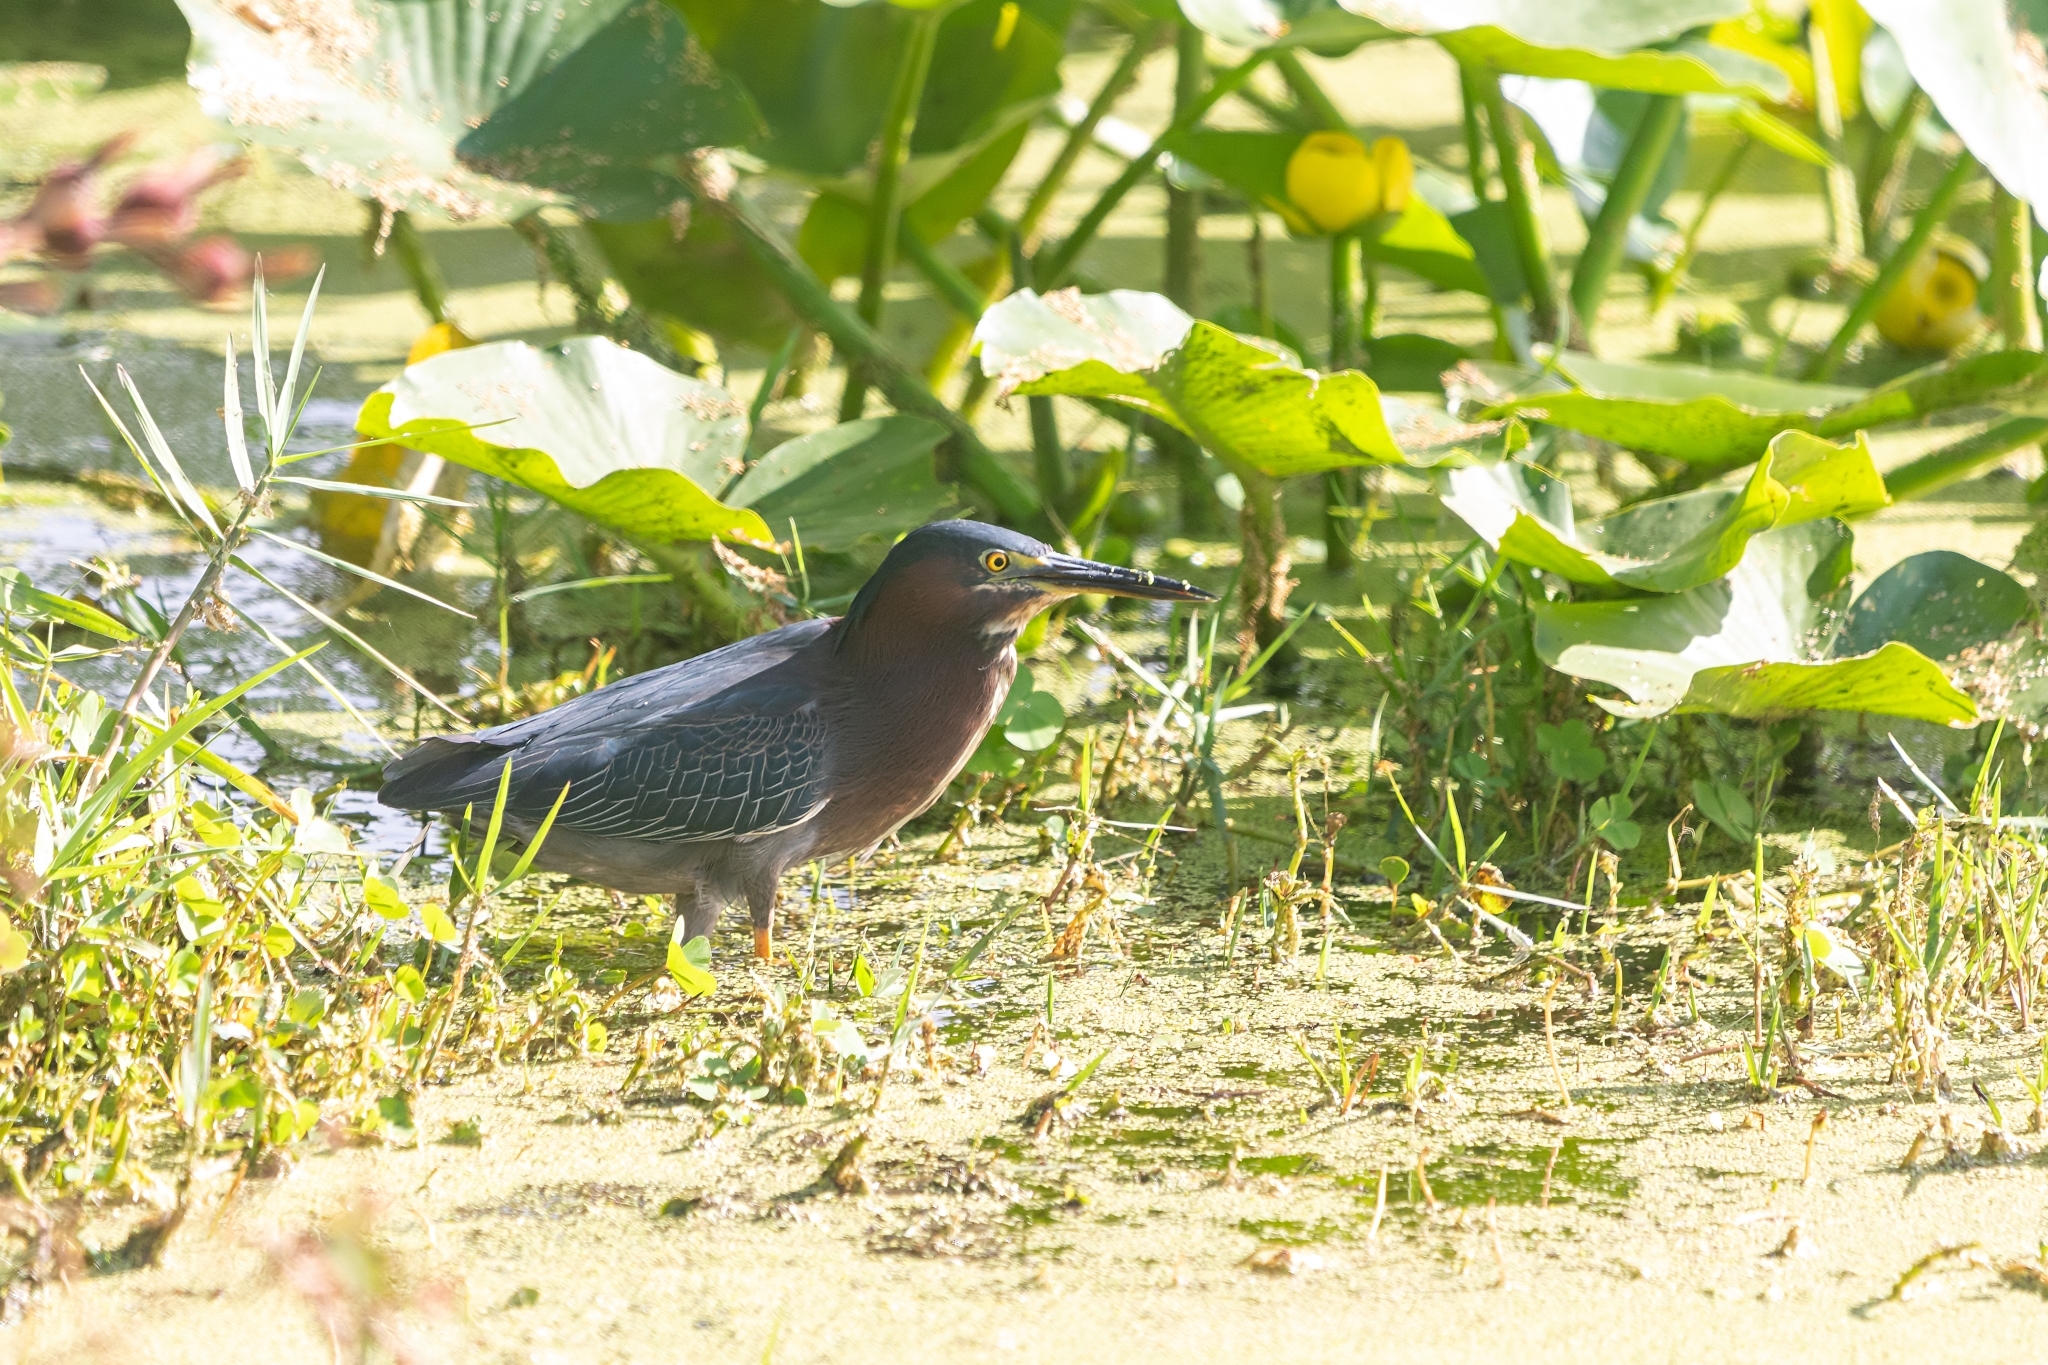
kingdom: Animalia
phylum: Chordata
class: Aves
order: Pelecaniformes
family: Ardeidae
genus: Butorides
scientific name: Butorides virescens
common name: Green heron
